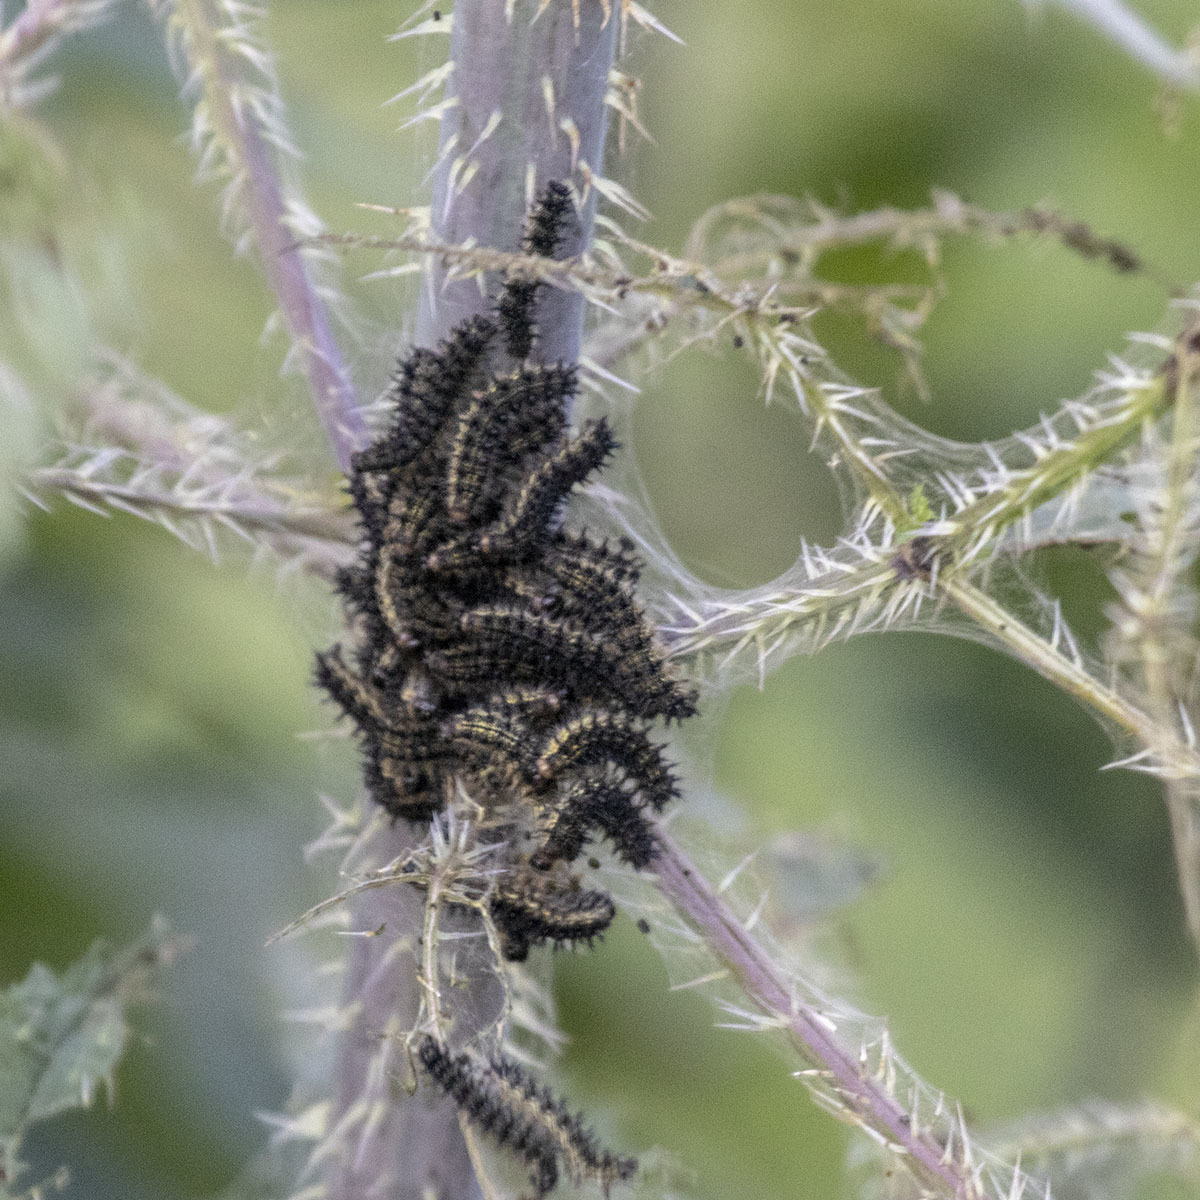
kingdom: Animalia
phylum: Arthropoda
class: Insecta
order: Lepidoptera
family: Nymphalidae
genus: Vanessa
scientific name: Vanessa cardui
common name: Painted lady
